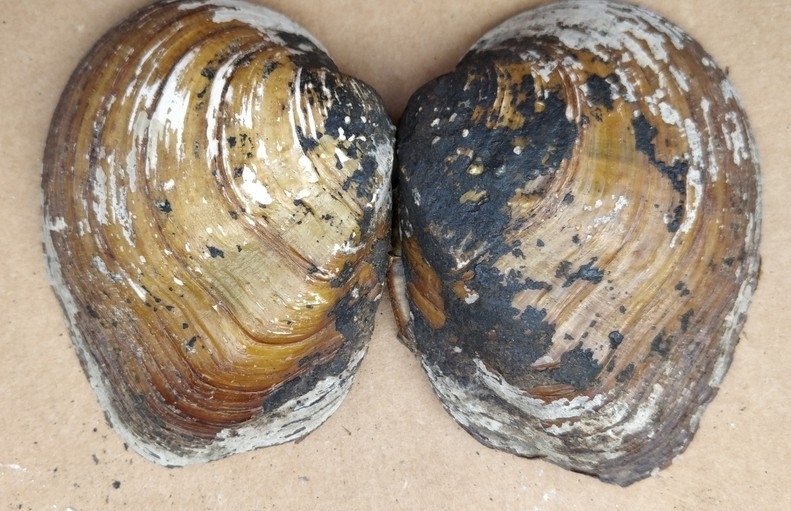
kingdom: Animalia
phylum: Mollusca
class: Bivalvia
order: Unionida
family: Unionidae
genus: Quadrula
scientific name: Quadrula quadrula
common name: Mapleleaf
